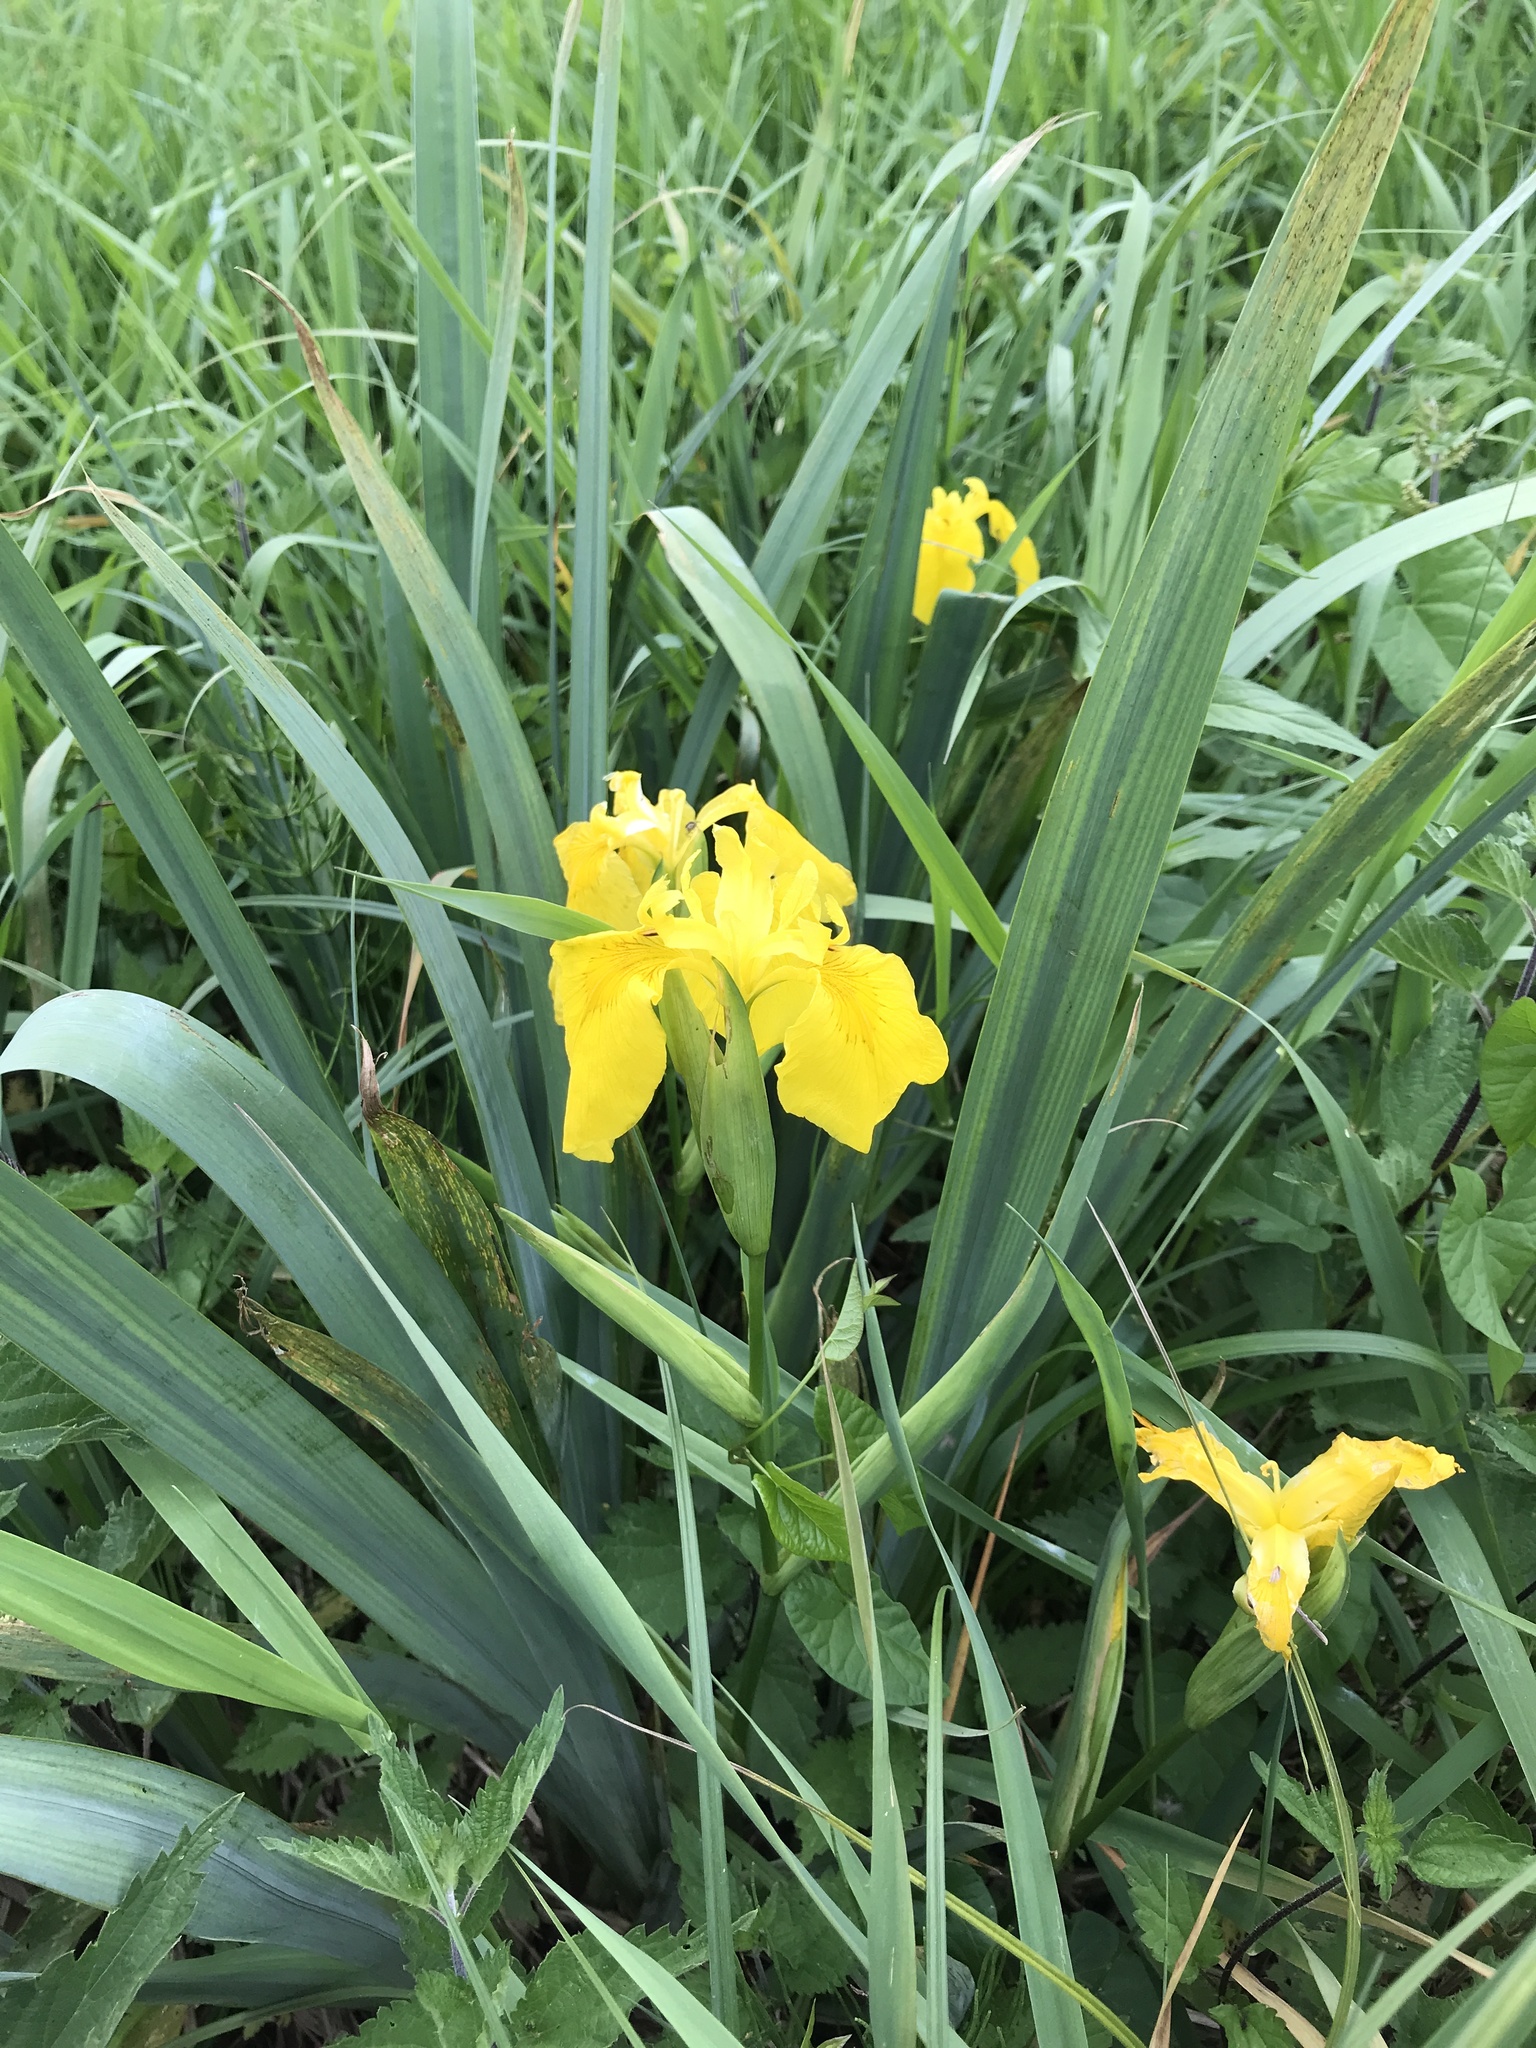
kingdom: Plantae
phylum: Tracheophyta
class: Liliopsida
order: Asparagales
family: Iridaceae
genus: Iris
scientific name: Iris pseudacorus
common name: Yellow flag
